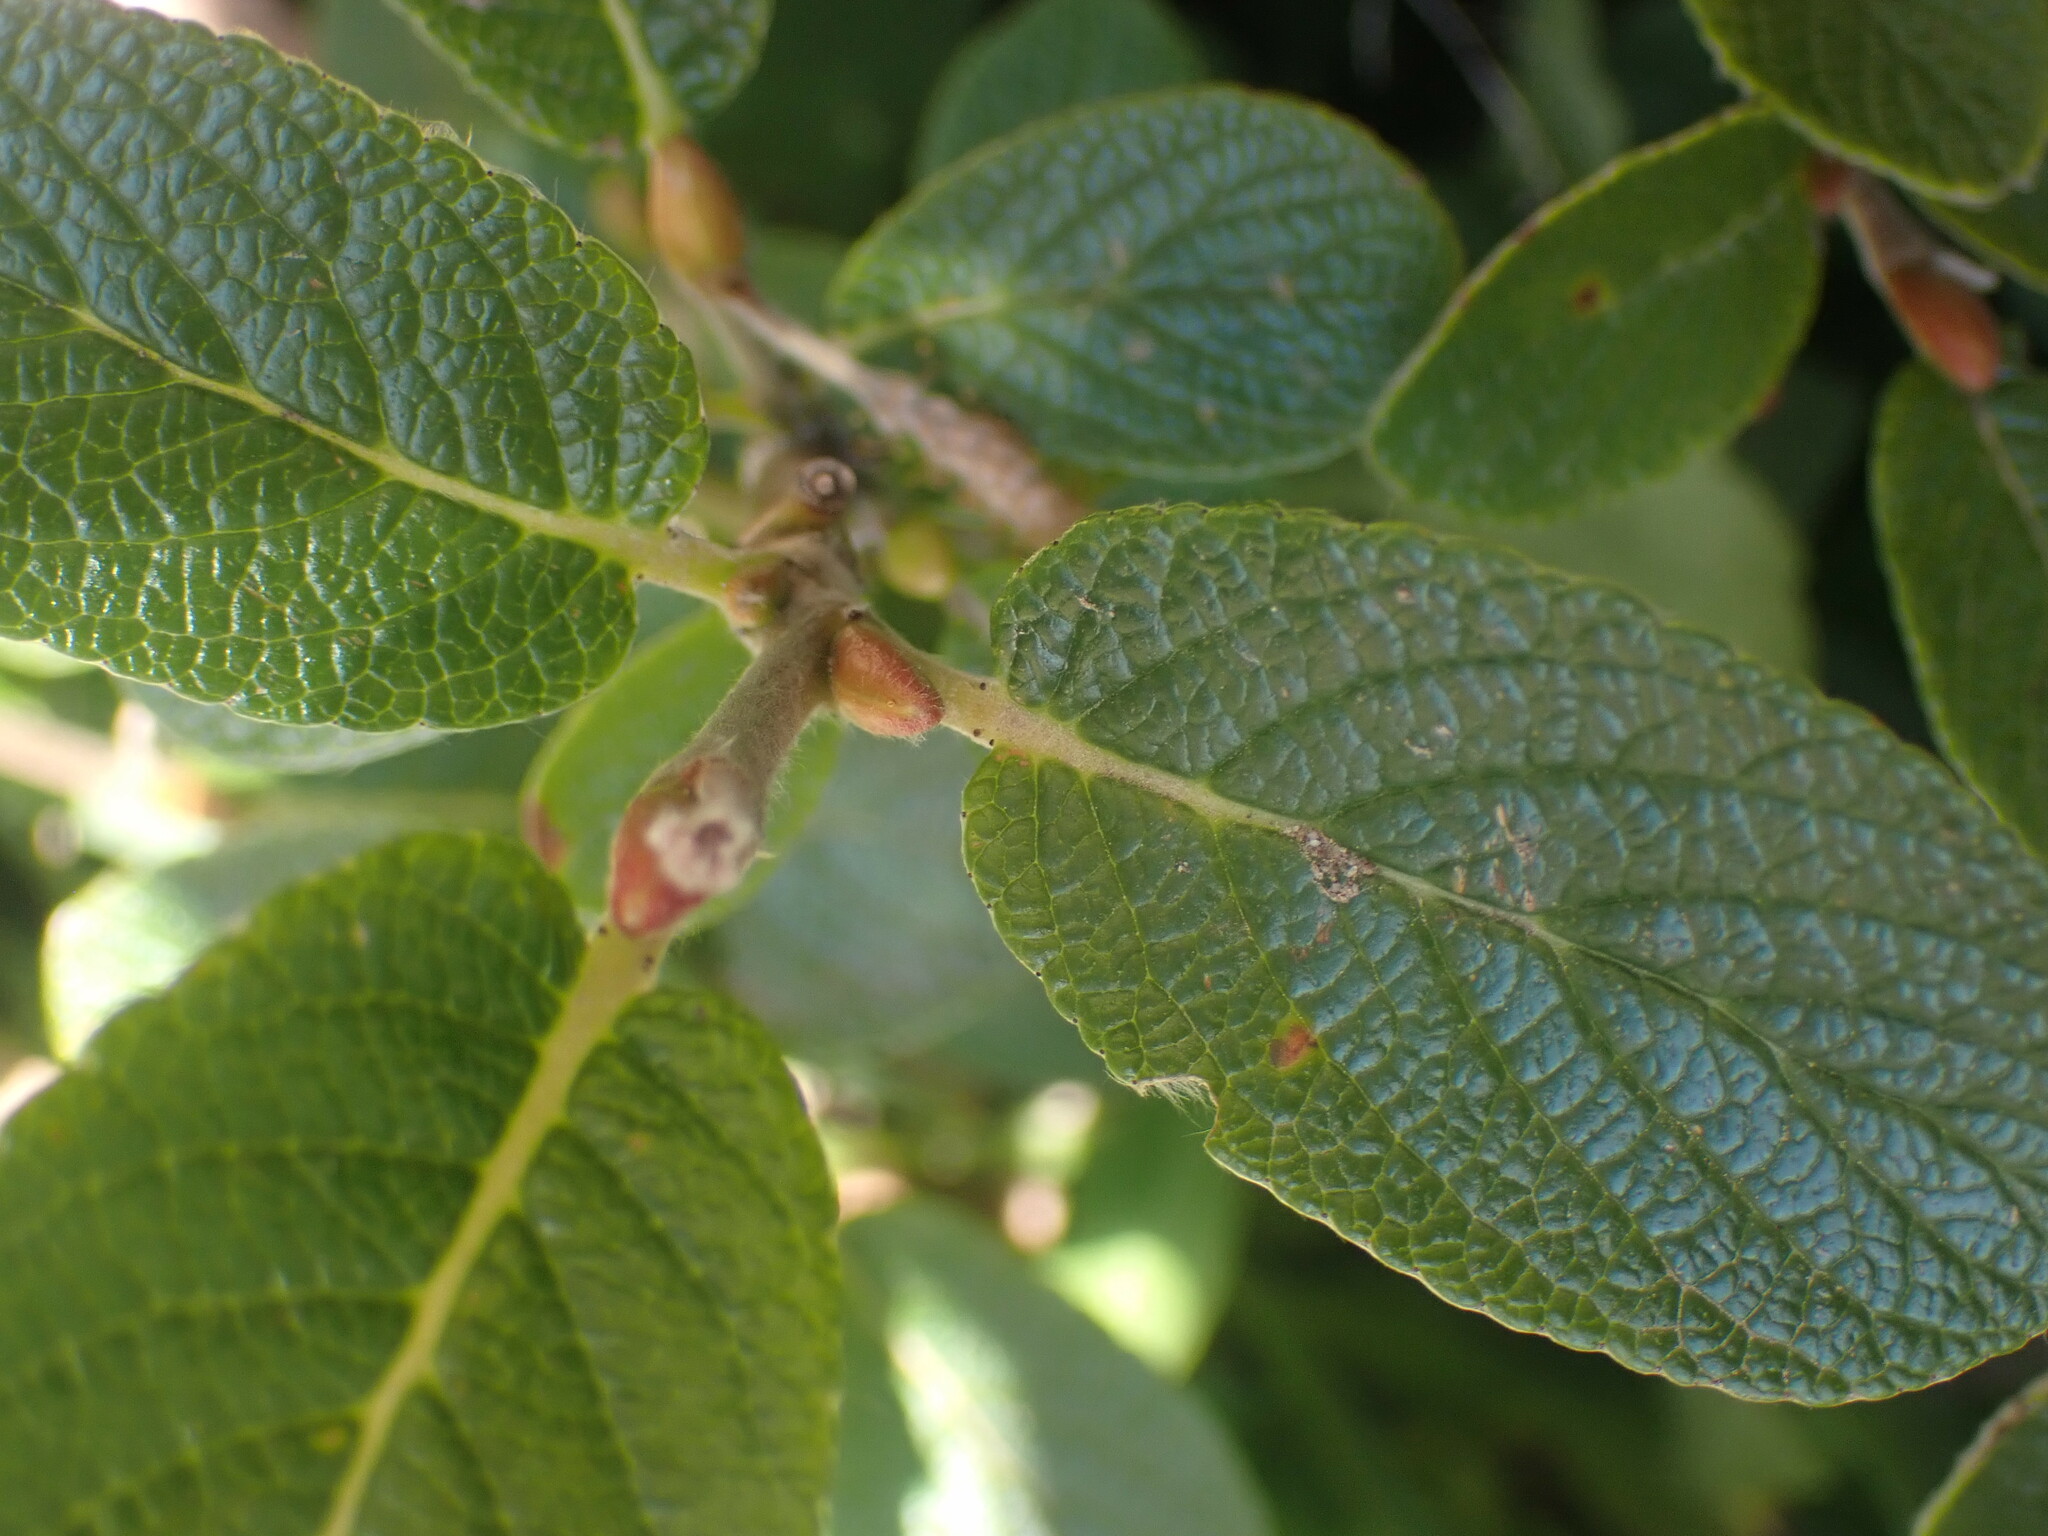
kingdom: Plantae
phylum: Tracheophyta
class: Magnoliopsida
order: Malpighiales
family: Salicaceae
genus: Salix
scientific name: Salix vestita
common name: Hairy willow
